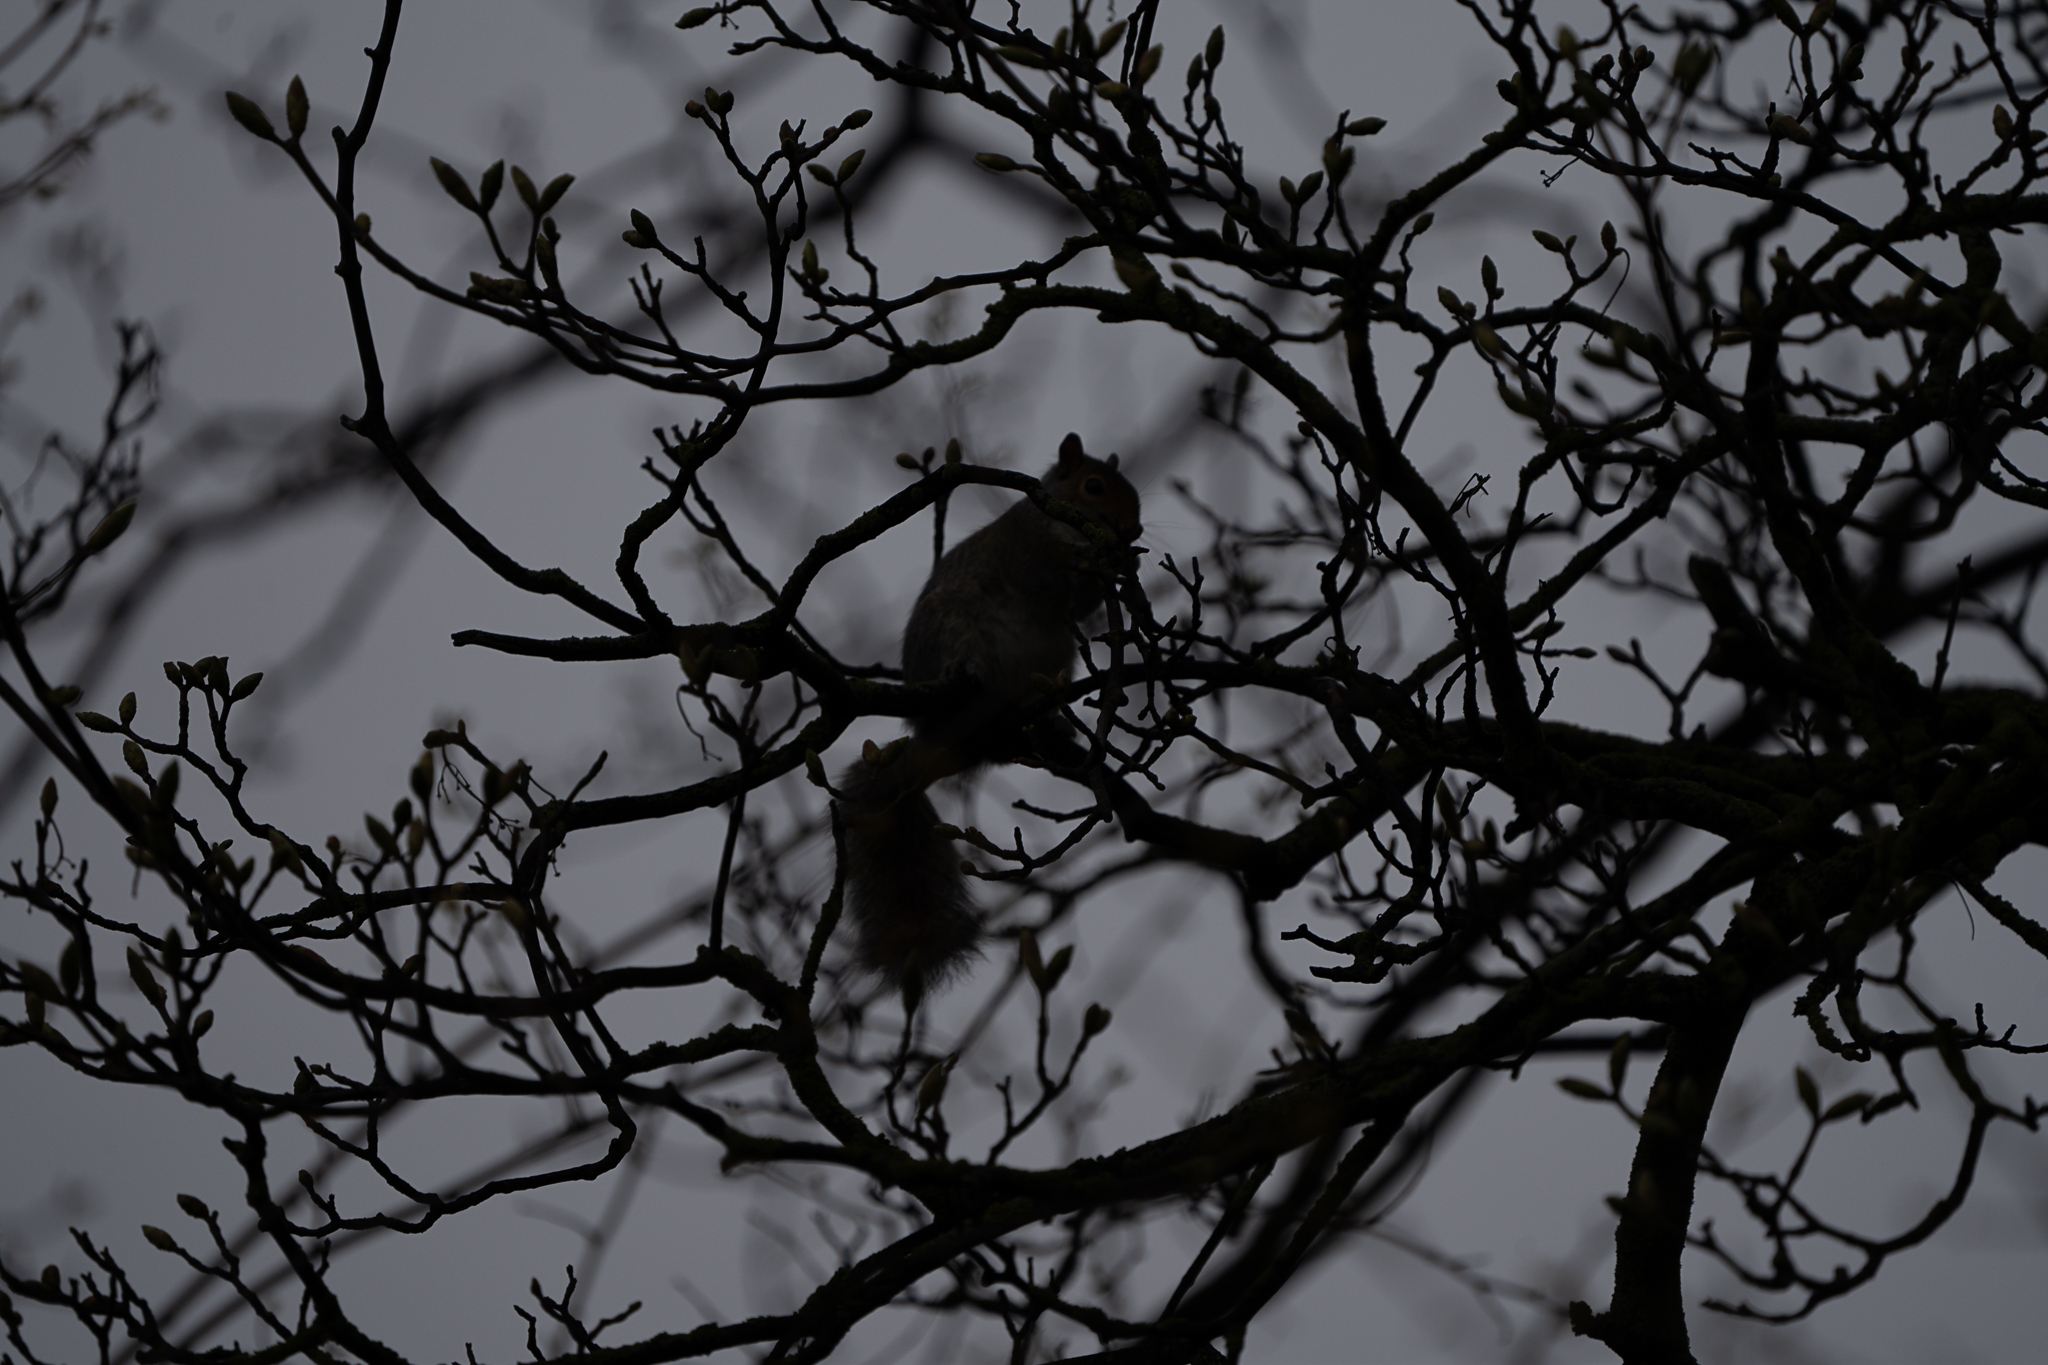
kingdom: Animalia
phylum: Chordata
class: Mammalia
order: Rodentia
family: Sciuridae
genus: Sciurus
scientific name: Sciurus carolinensis
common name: Eastern gray squirrel
